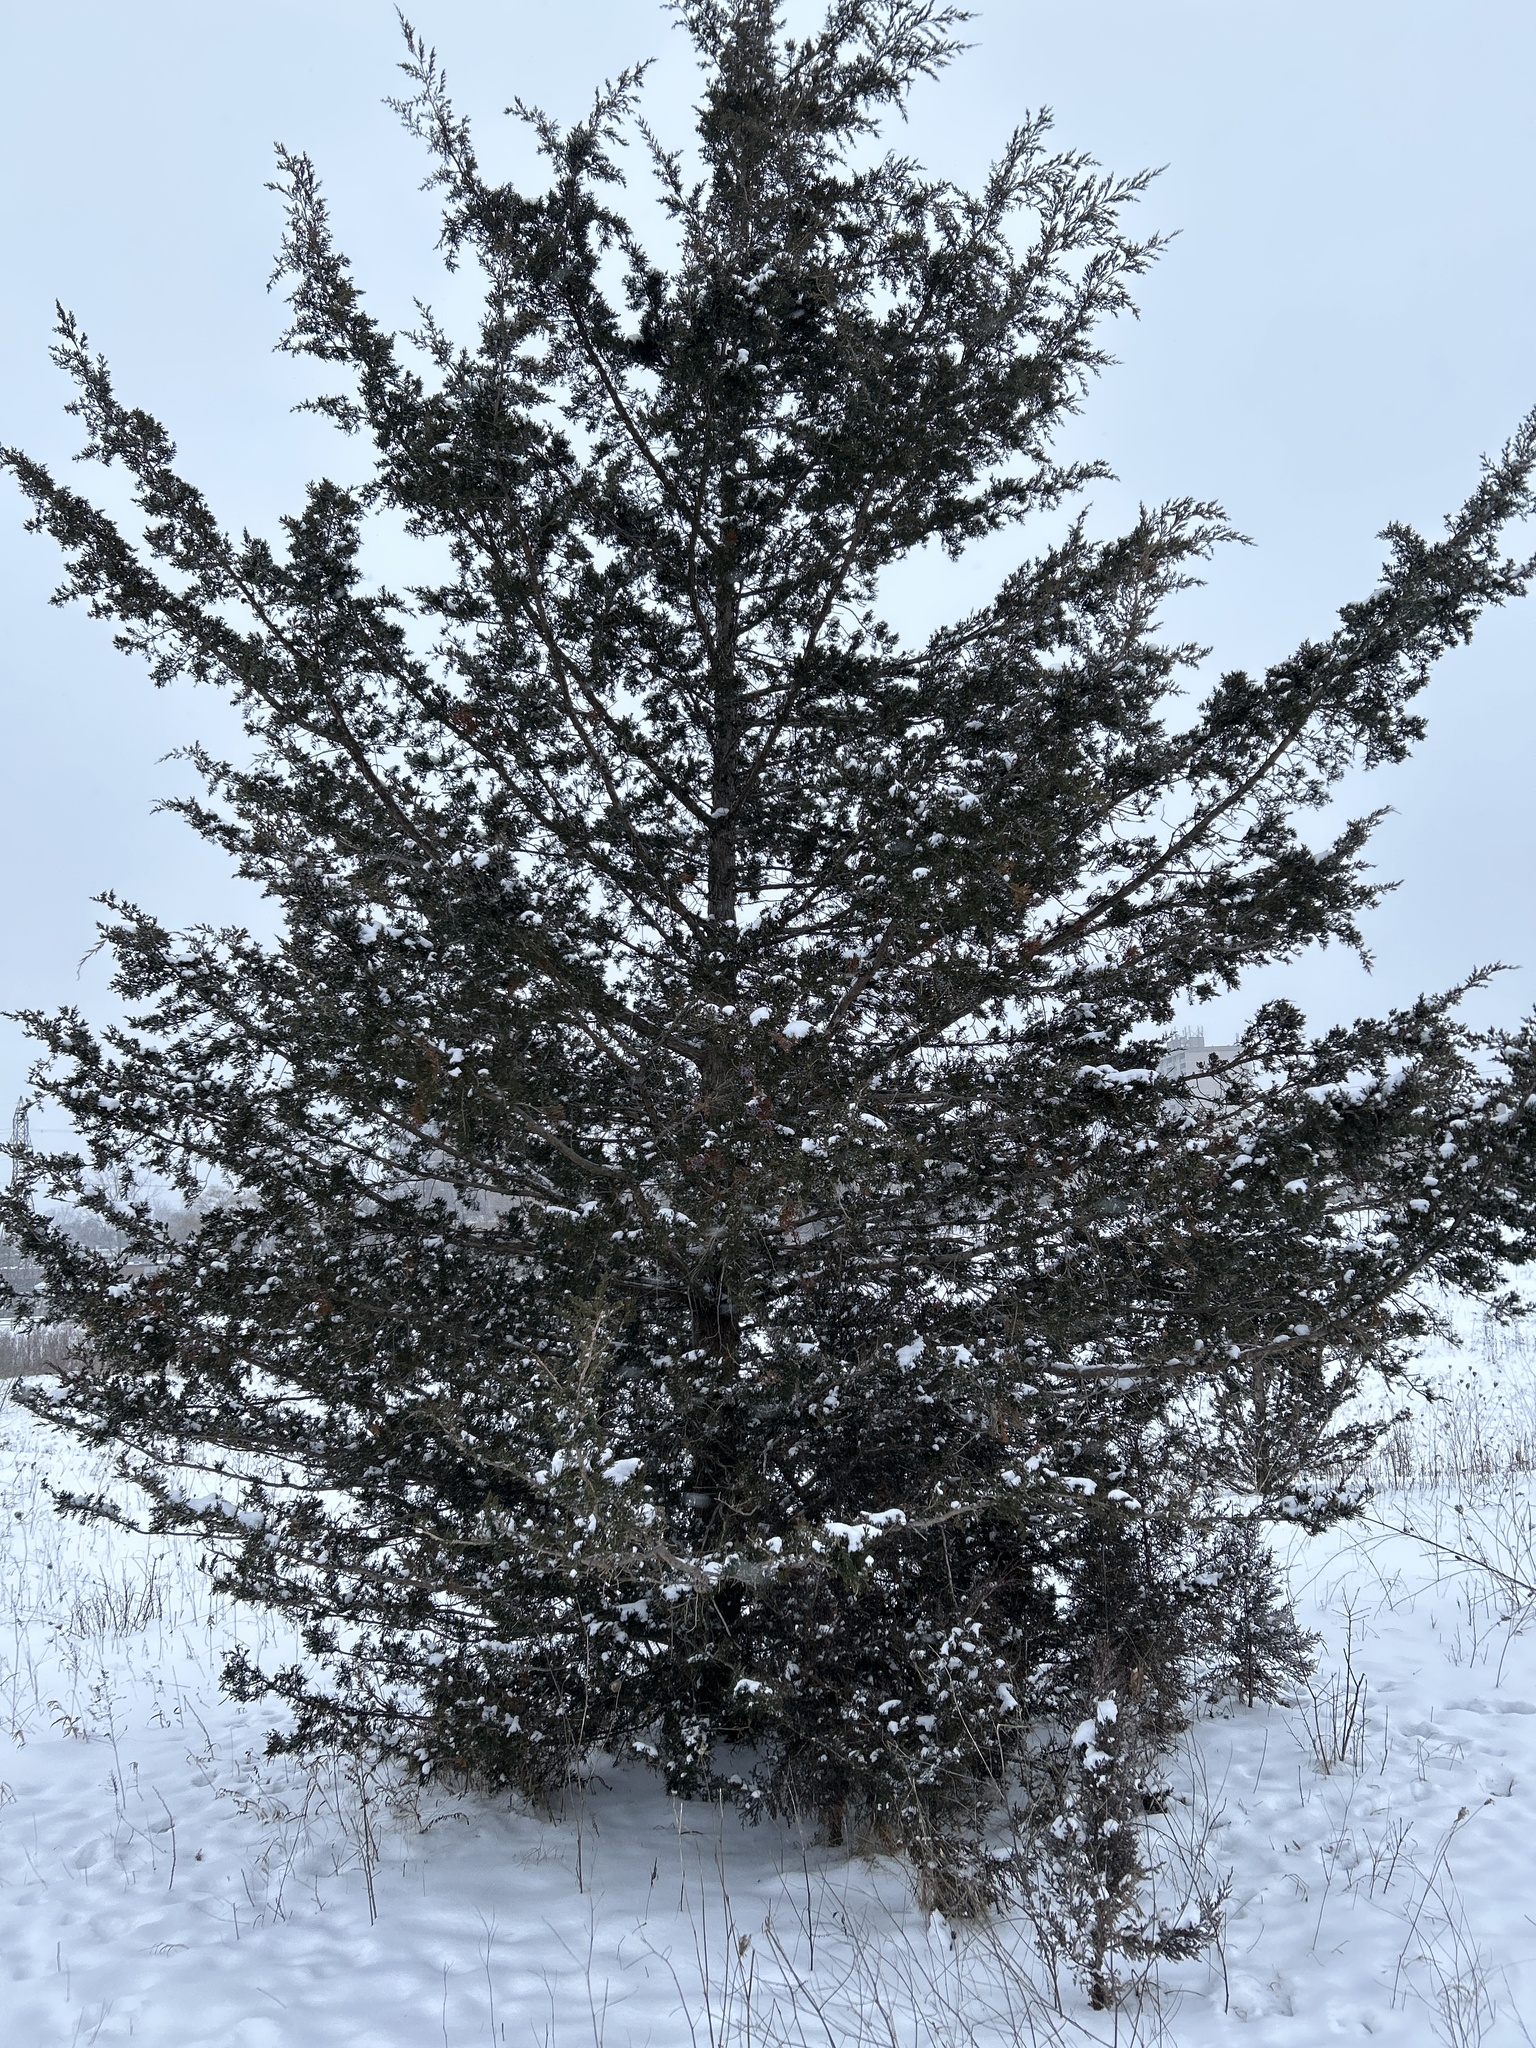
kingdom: Plantae
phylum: Tracheophyta
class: Pinopsida
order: Pinales
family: Cupressaceae
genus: Juniperus
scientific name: Juniperus virginiana
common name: Red juniper
